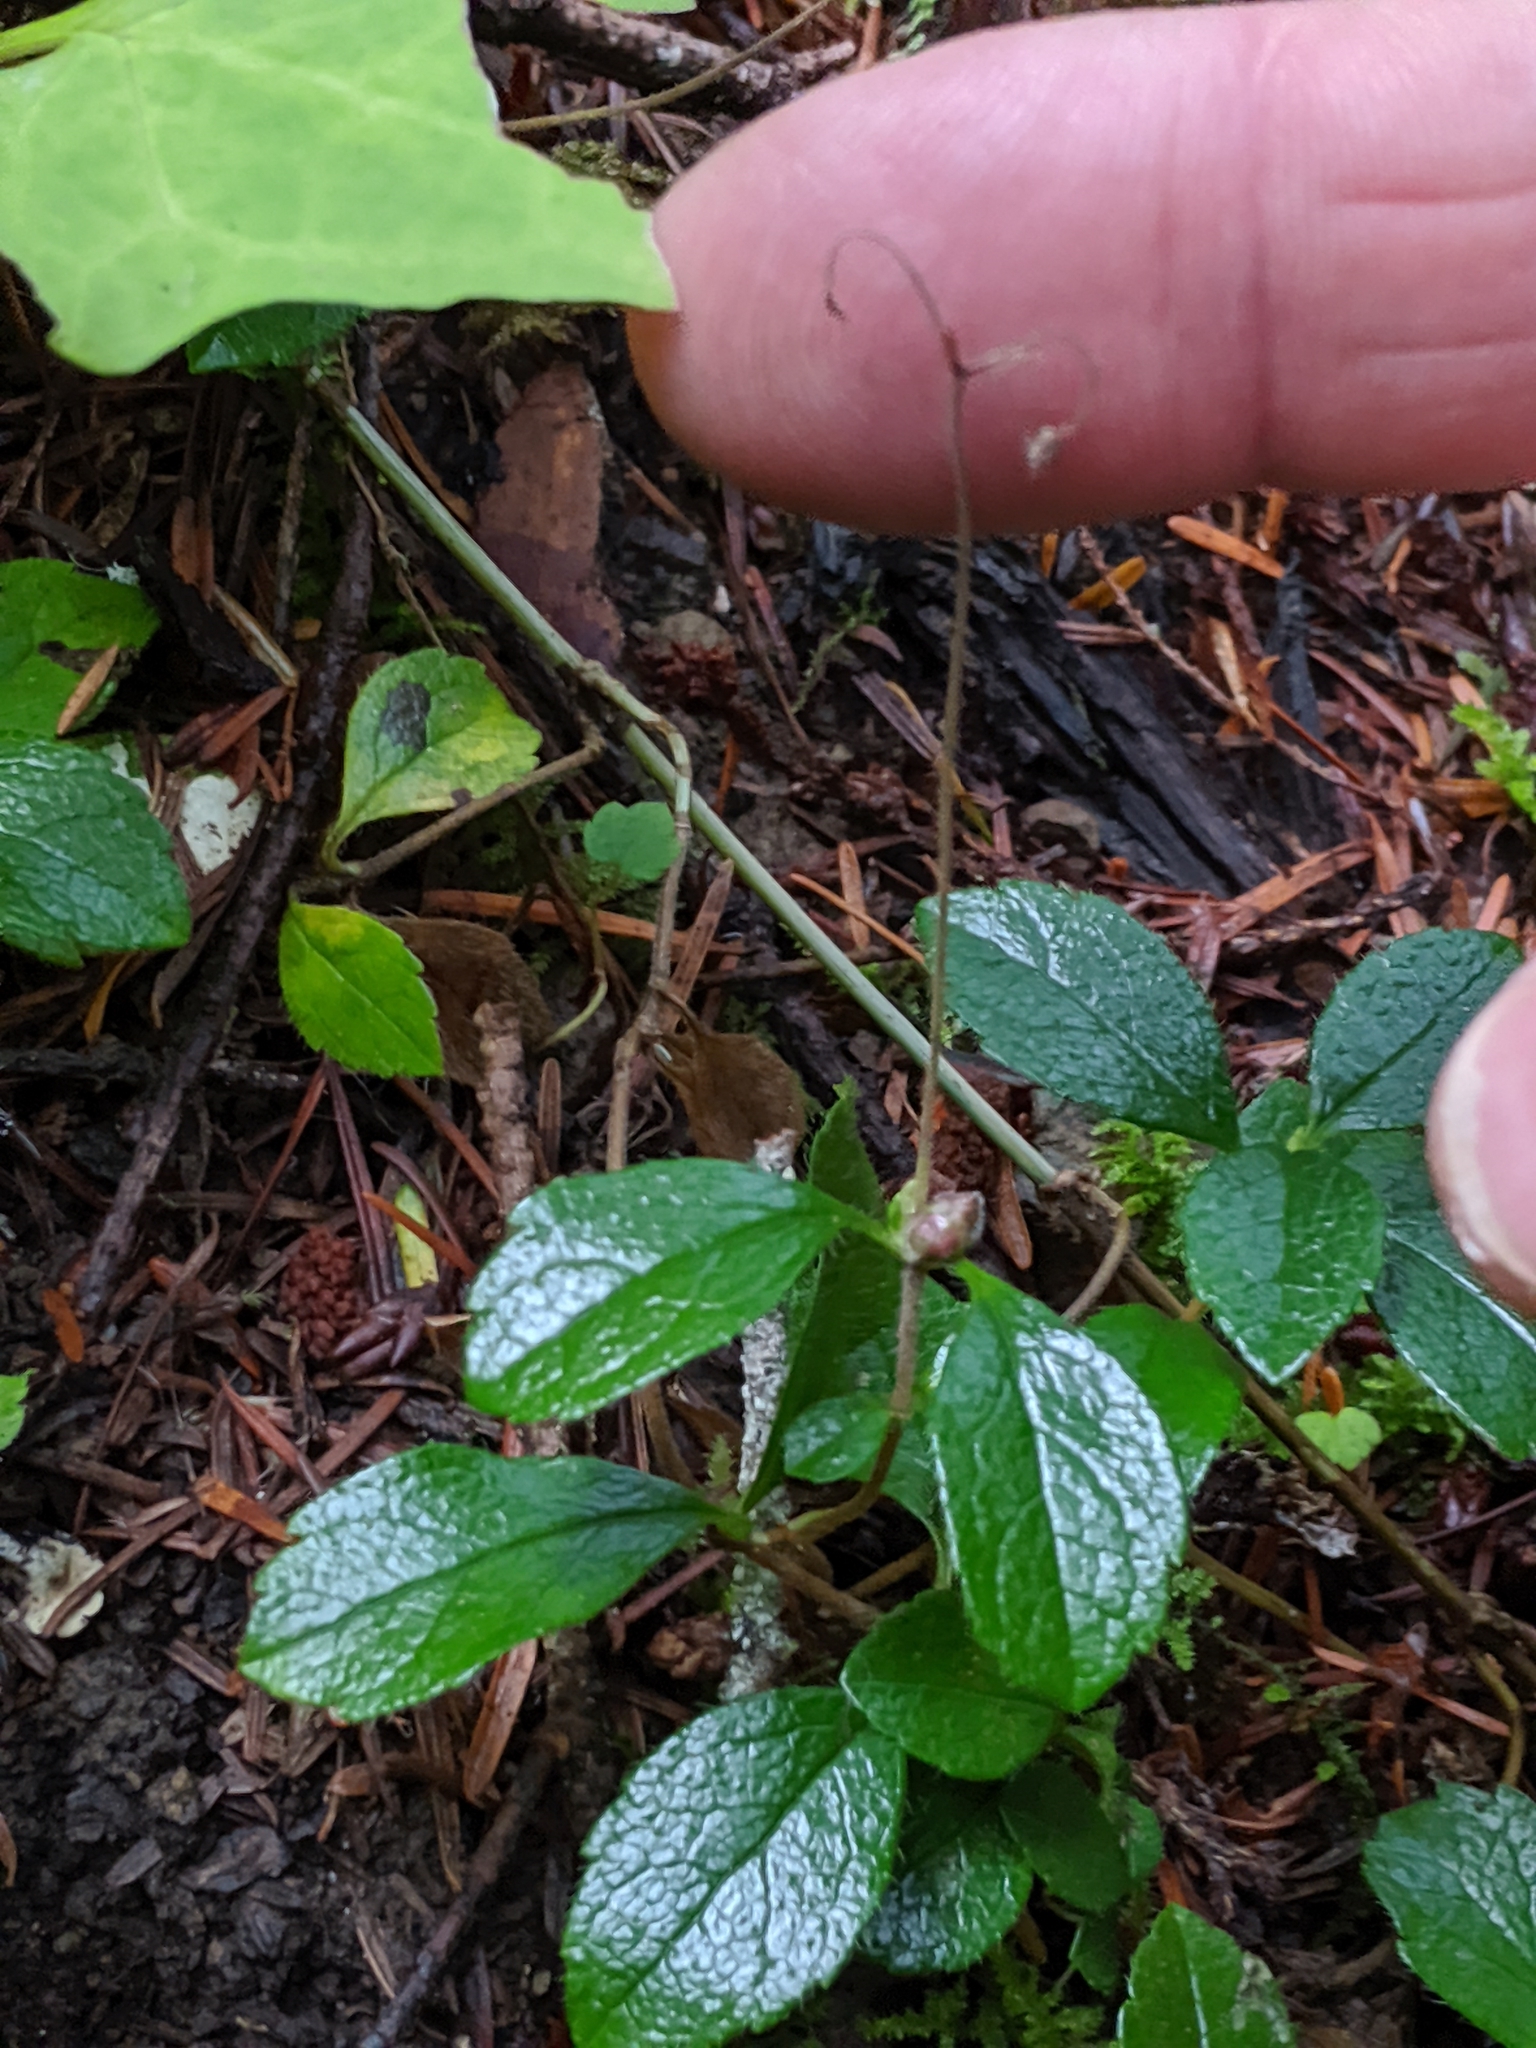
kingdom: Plantae
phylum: Tracheophyta
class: Magnoliopsida
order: Dipsacales
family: Caprifoliaceae
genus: Linnaea
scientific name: Linnaea borealis
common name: Twinflower
